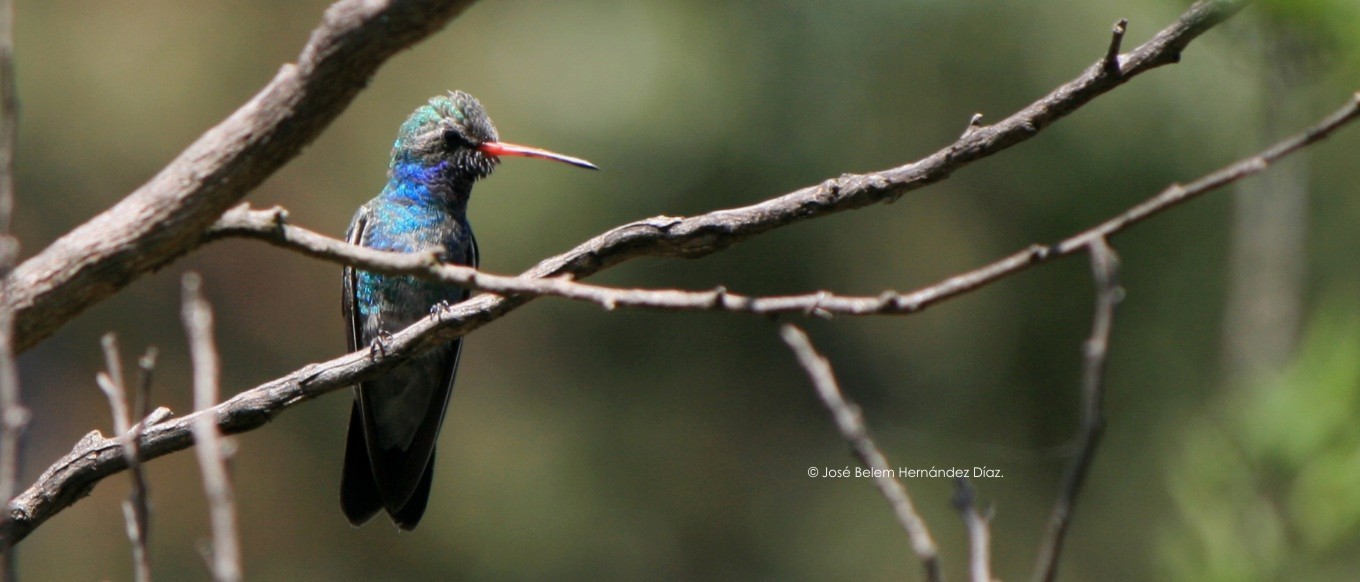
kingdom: Animalia
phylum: Chordata
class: Aves
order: Apodiformes
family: Trochilidae
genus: Cynanthus
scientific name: Cynanthus latirostris
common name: Broad-billed hummingbird
